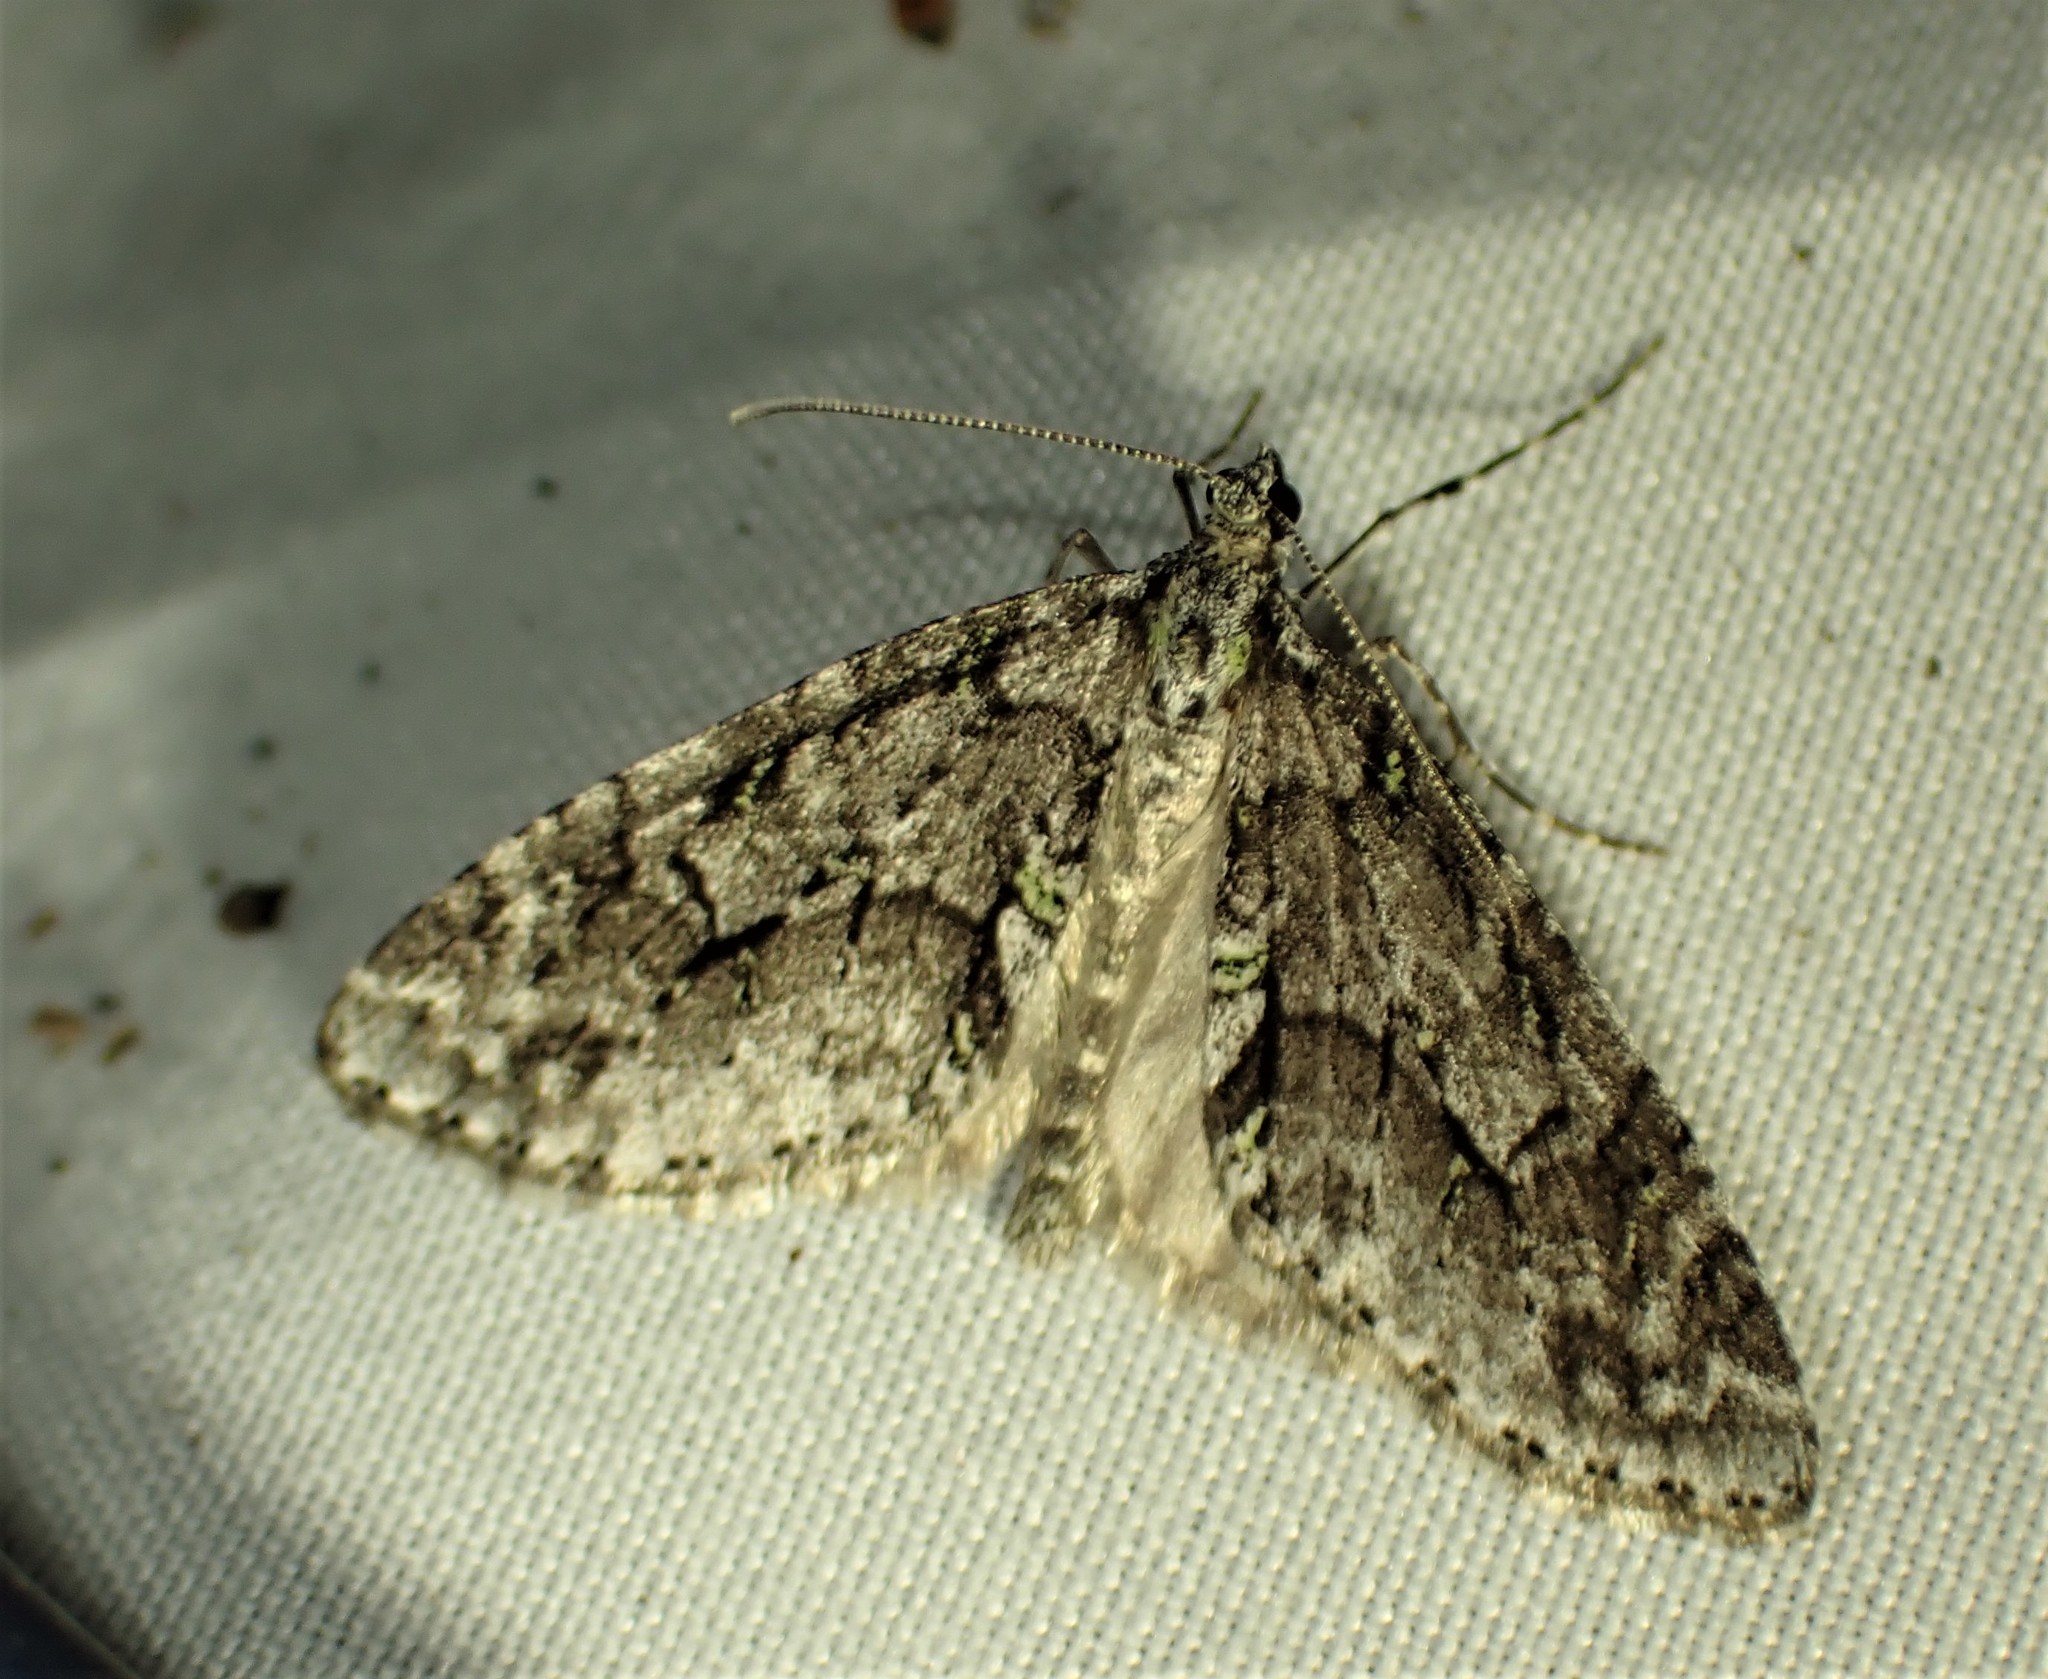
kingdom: Animalia
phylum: Arthropoda
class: Insecta
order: Lepidoptera
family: Geometridae
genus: Cladara
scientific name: Cladara limitaria
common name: Mottled gray carpet
